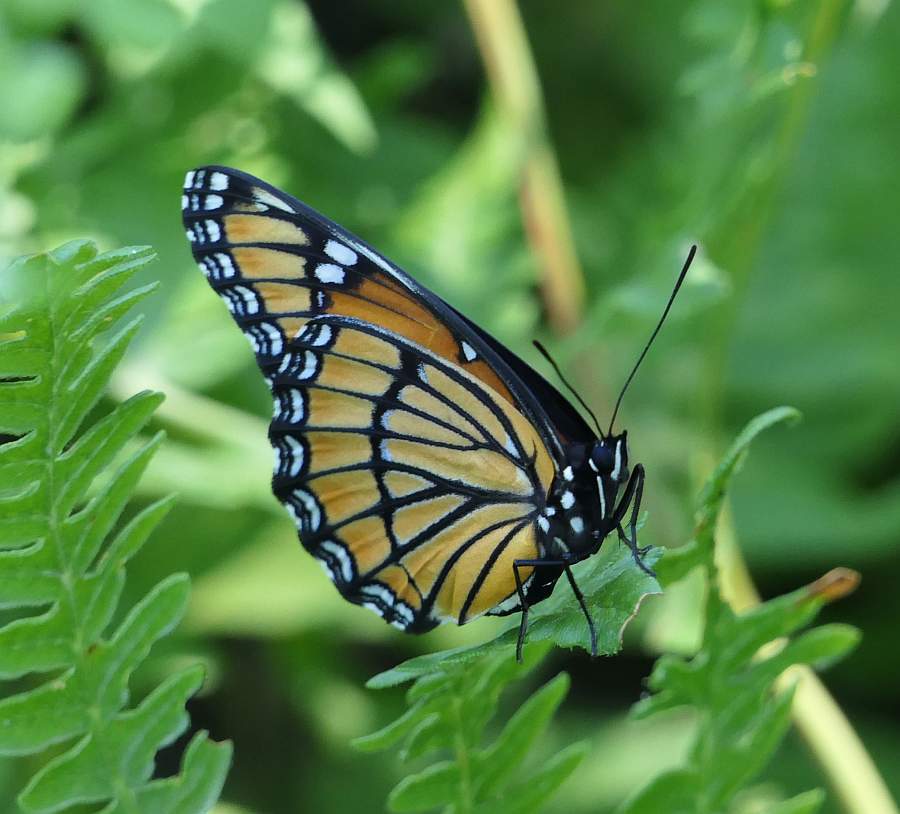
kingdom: Animalia
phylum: Arthropoda
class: Insecta
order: Lepidoptera
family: Nymphalidae
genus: Limenitis
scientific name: Limenitis archippus
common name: Viceroy
